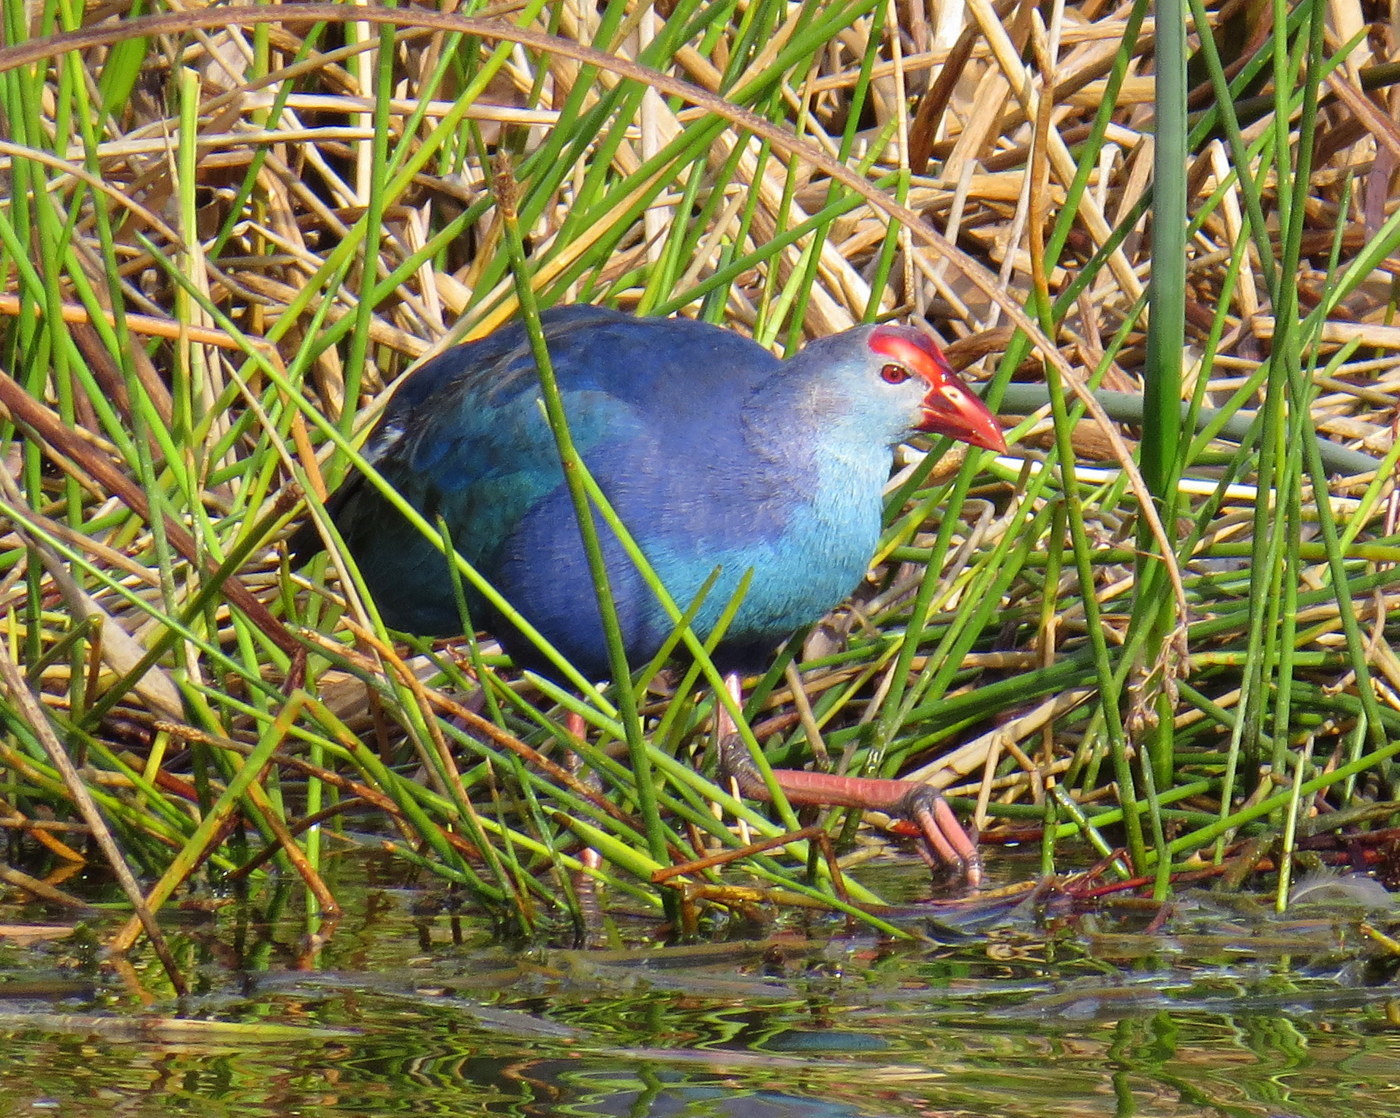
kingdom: Animalia
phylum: Chordata
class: Aves
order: Gruiformes
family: Rallidae
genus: Porphyrio
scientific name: Porphyrio porphyrio
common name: Purple swamphen
